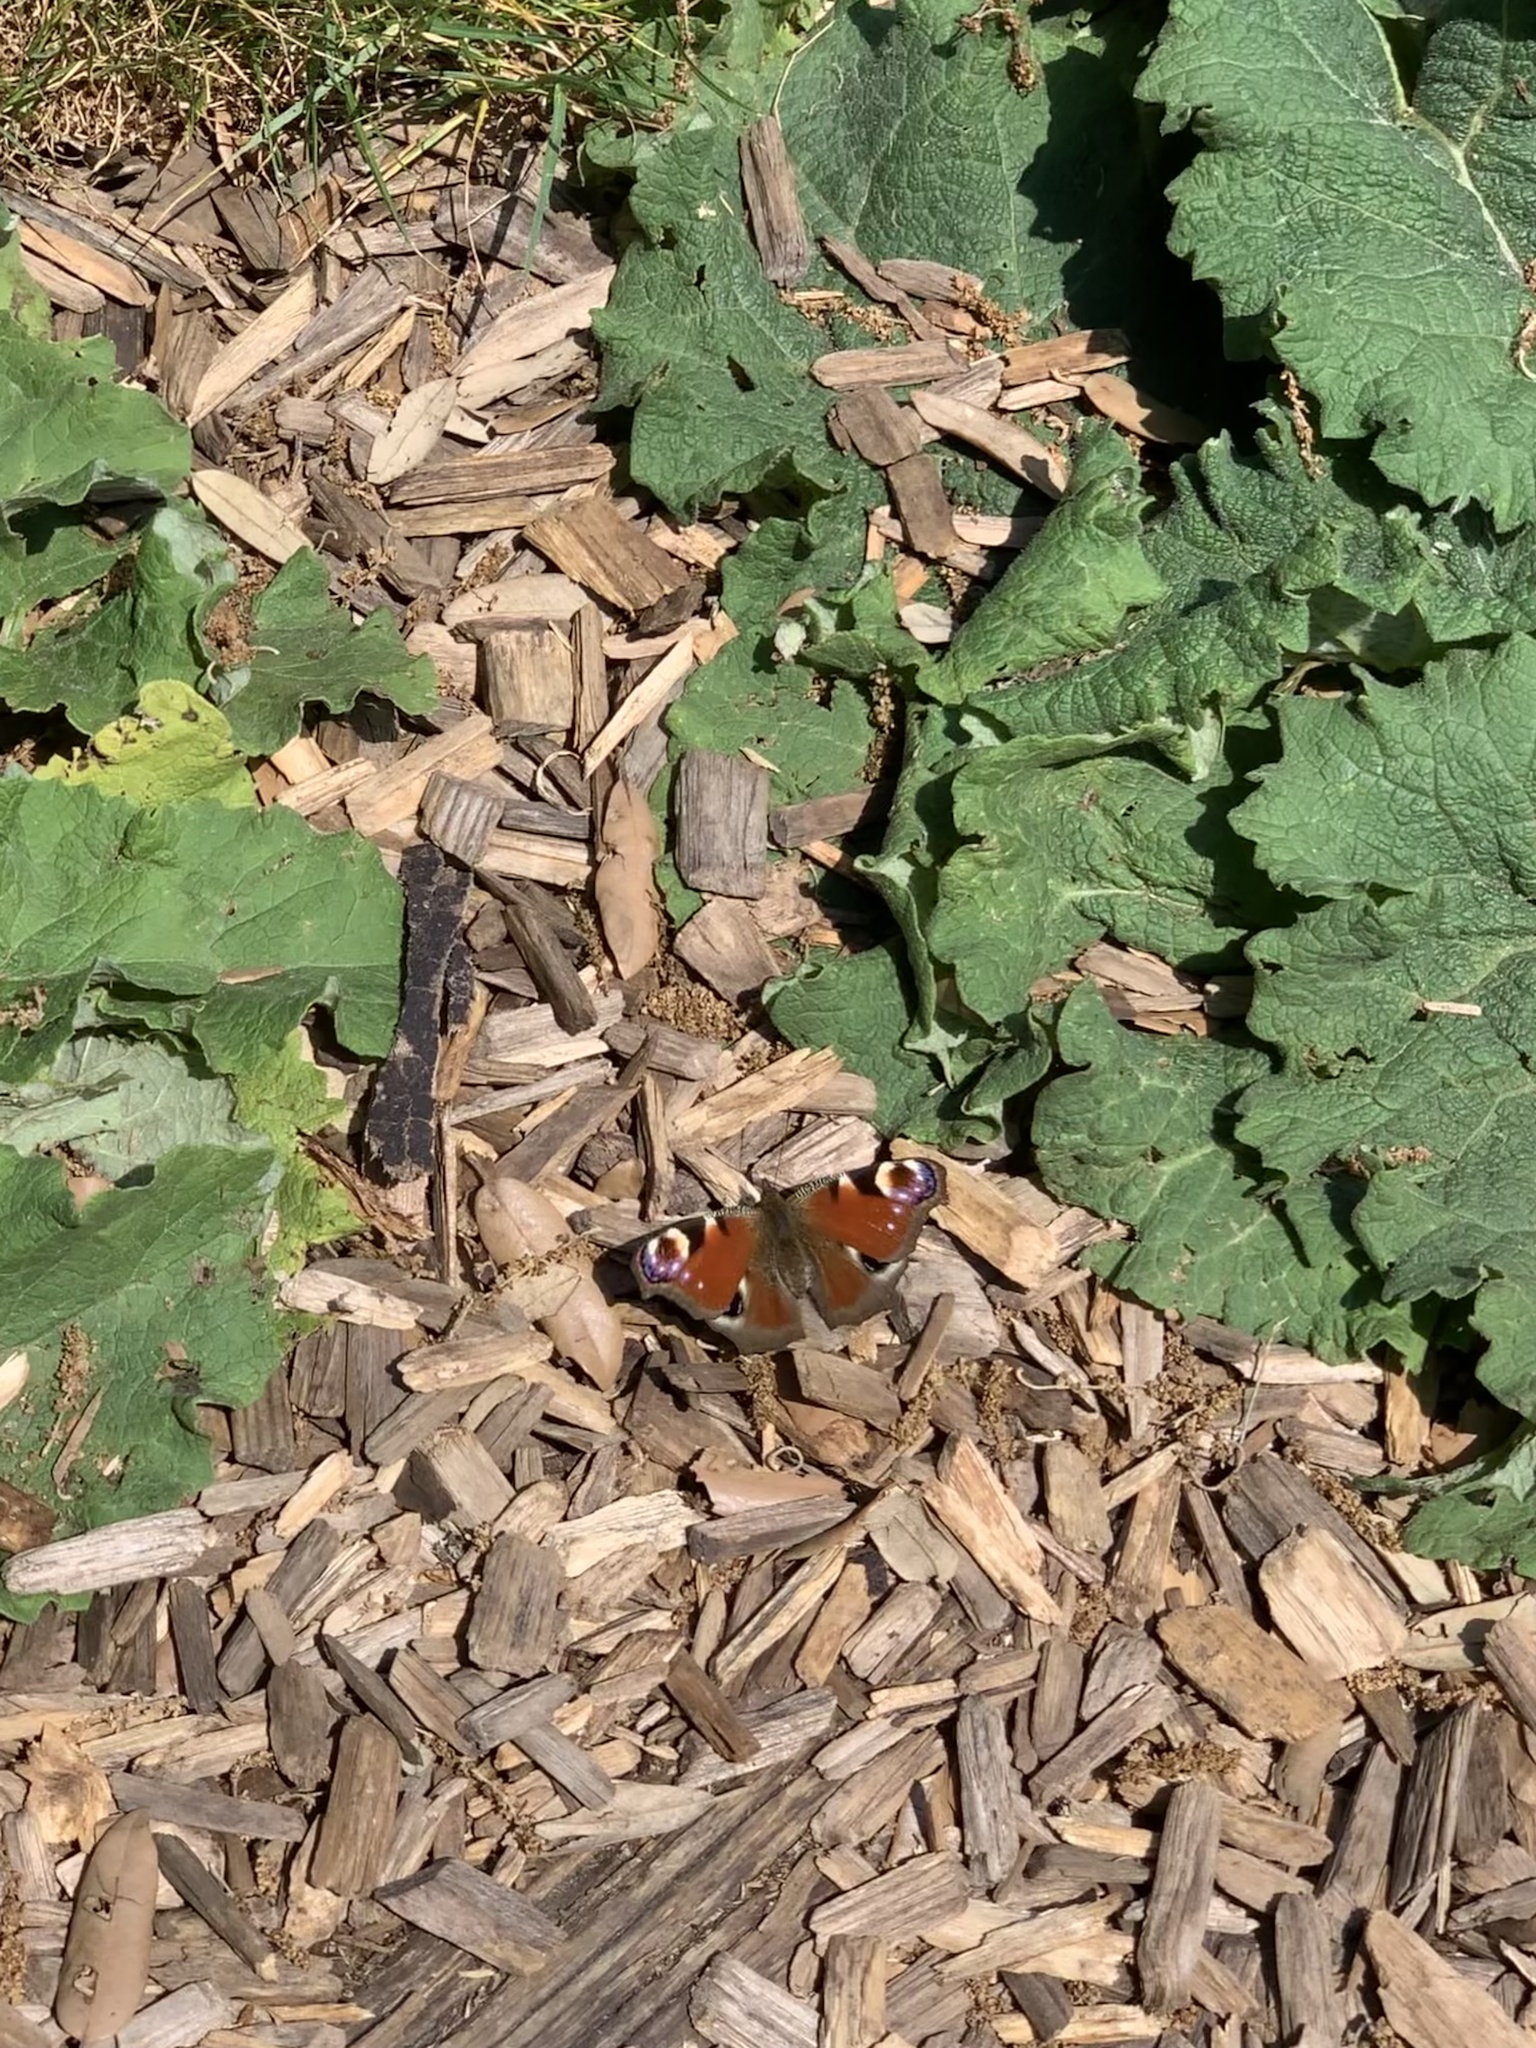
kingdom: Animalia
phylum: Arthropoda
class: Insecta
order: Lepidoptera
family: Nymphalidae
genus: Aglais
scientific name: Aglais io
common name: Peacock
